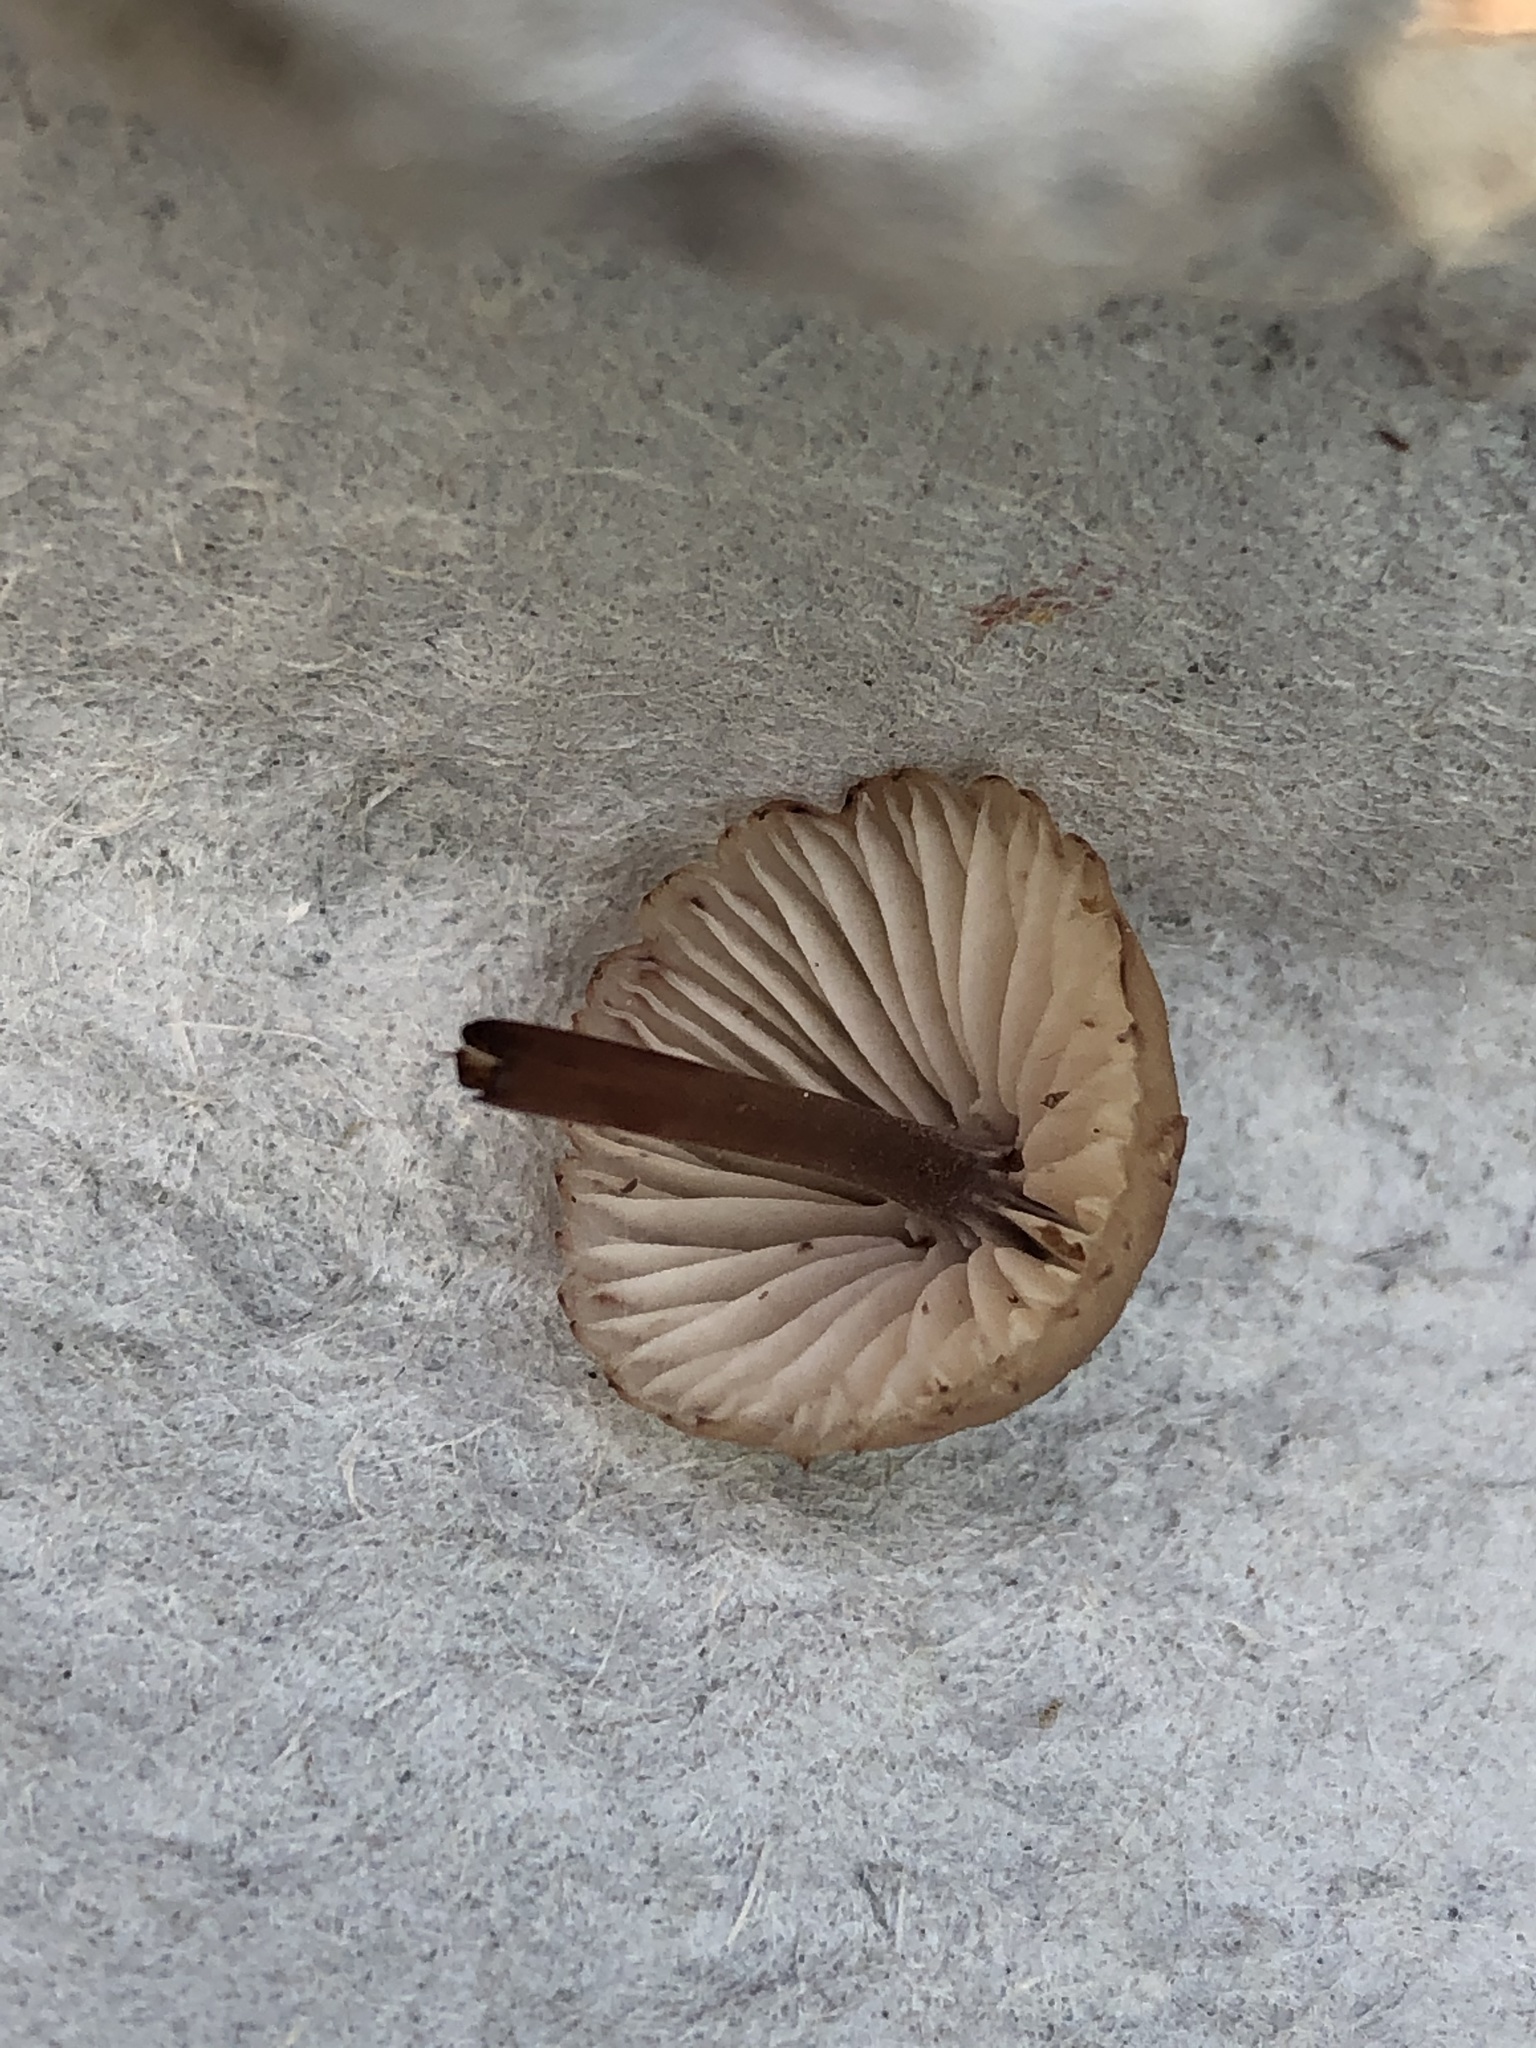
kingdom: Fungi
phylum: Basidiomycota
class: Agaricomycetes
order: Agaricales
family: Mycenaceae
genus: Mycena
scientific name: Mycena haematopus
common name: Burgundydrop bonnet
